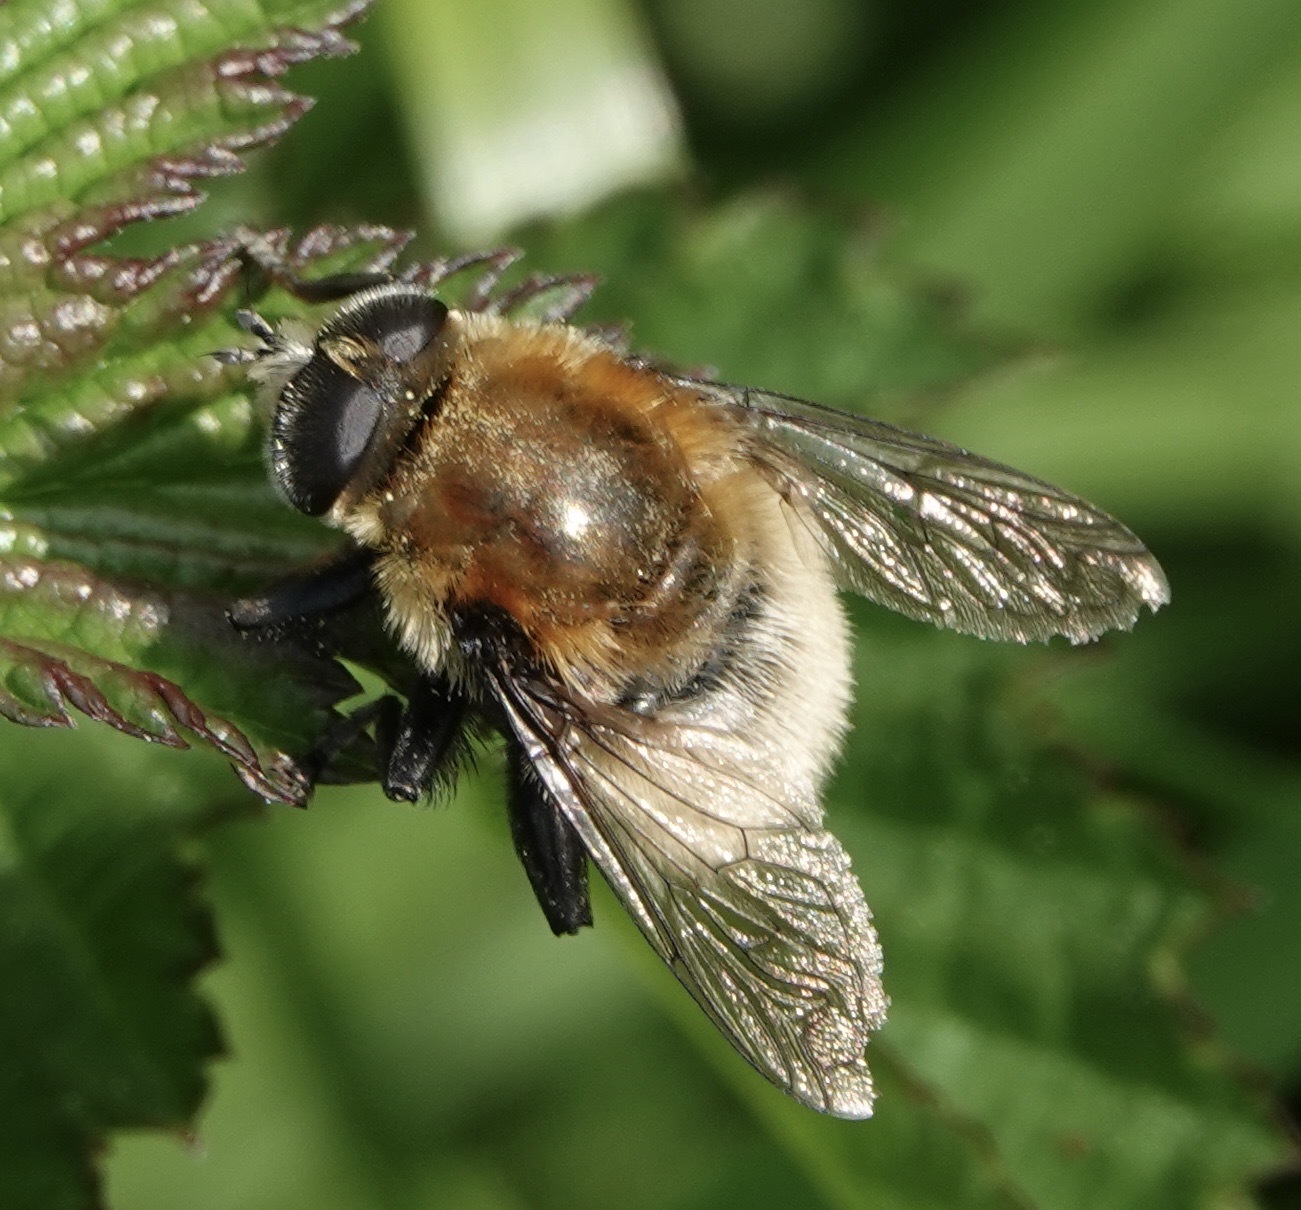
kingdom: Animalia
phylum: Arthropoda
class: Insecta
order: Diptera
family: Syrphidae
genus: Merodon
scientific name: Merodon equestris
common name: Greater bulb-fly
